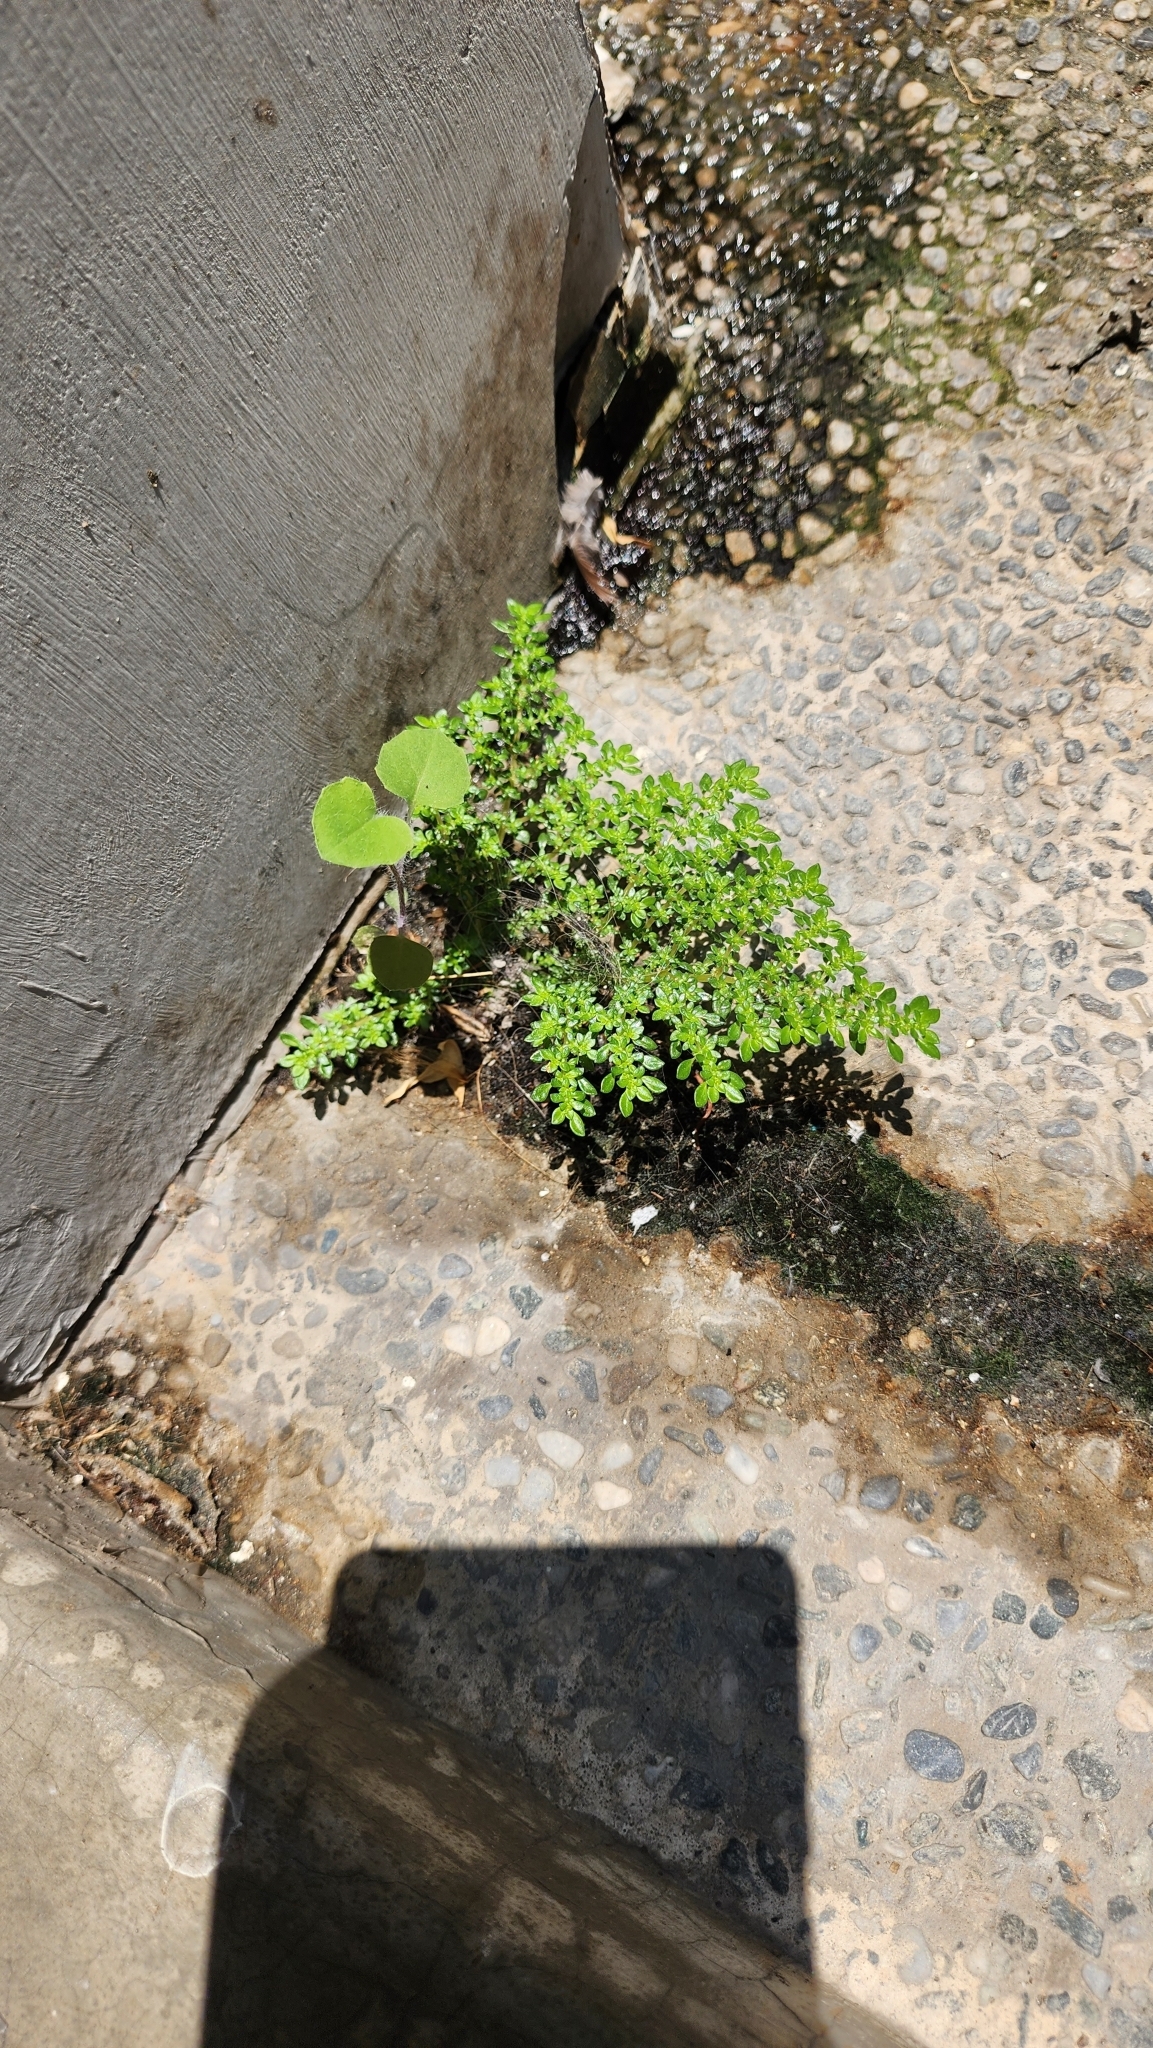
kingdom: Plantae
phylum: Tracheophyta
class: Magnoliopsida
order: Rosales
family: Urticaceae
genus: Pilea
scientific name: Pilea microphylla
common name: Artillery-plant
